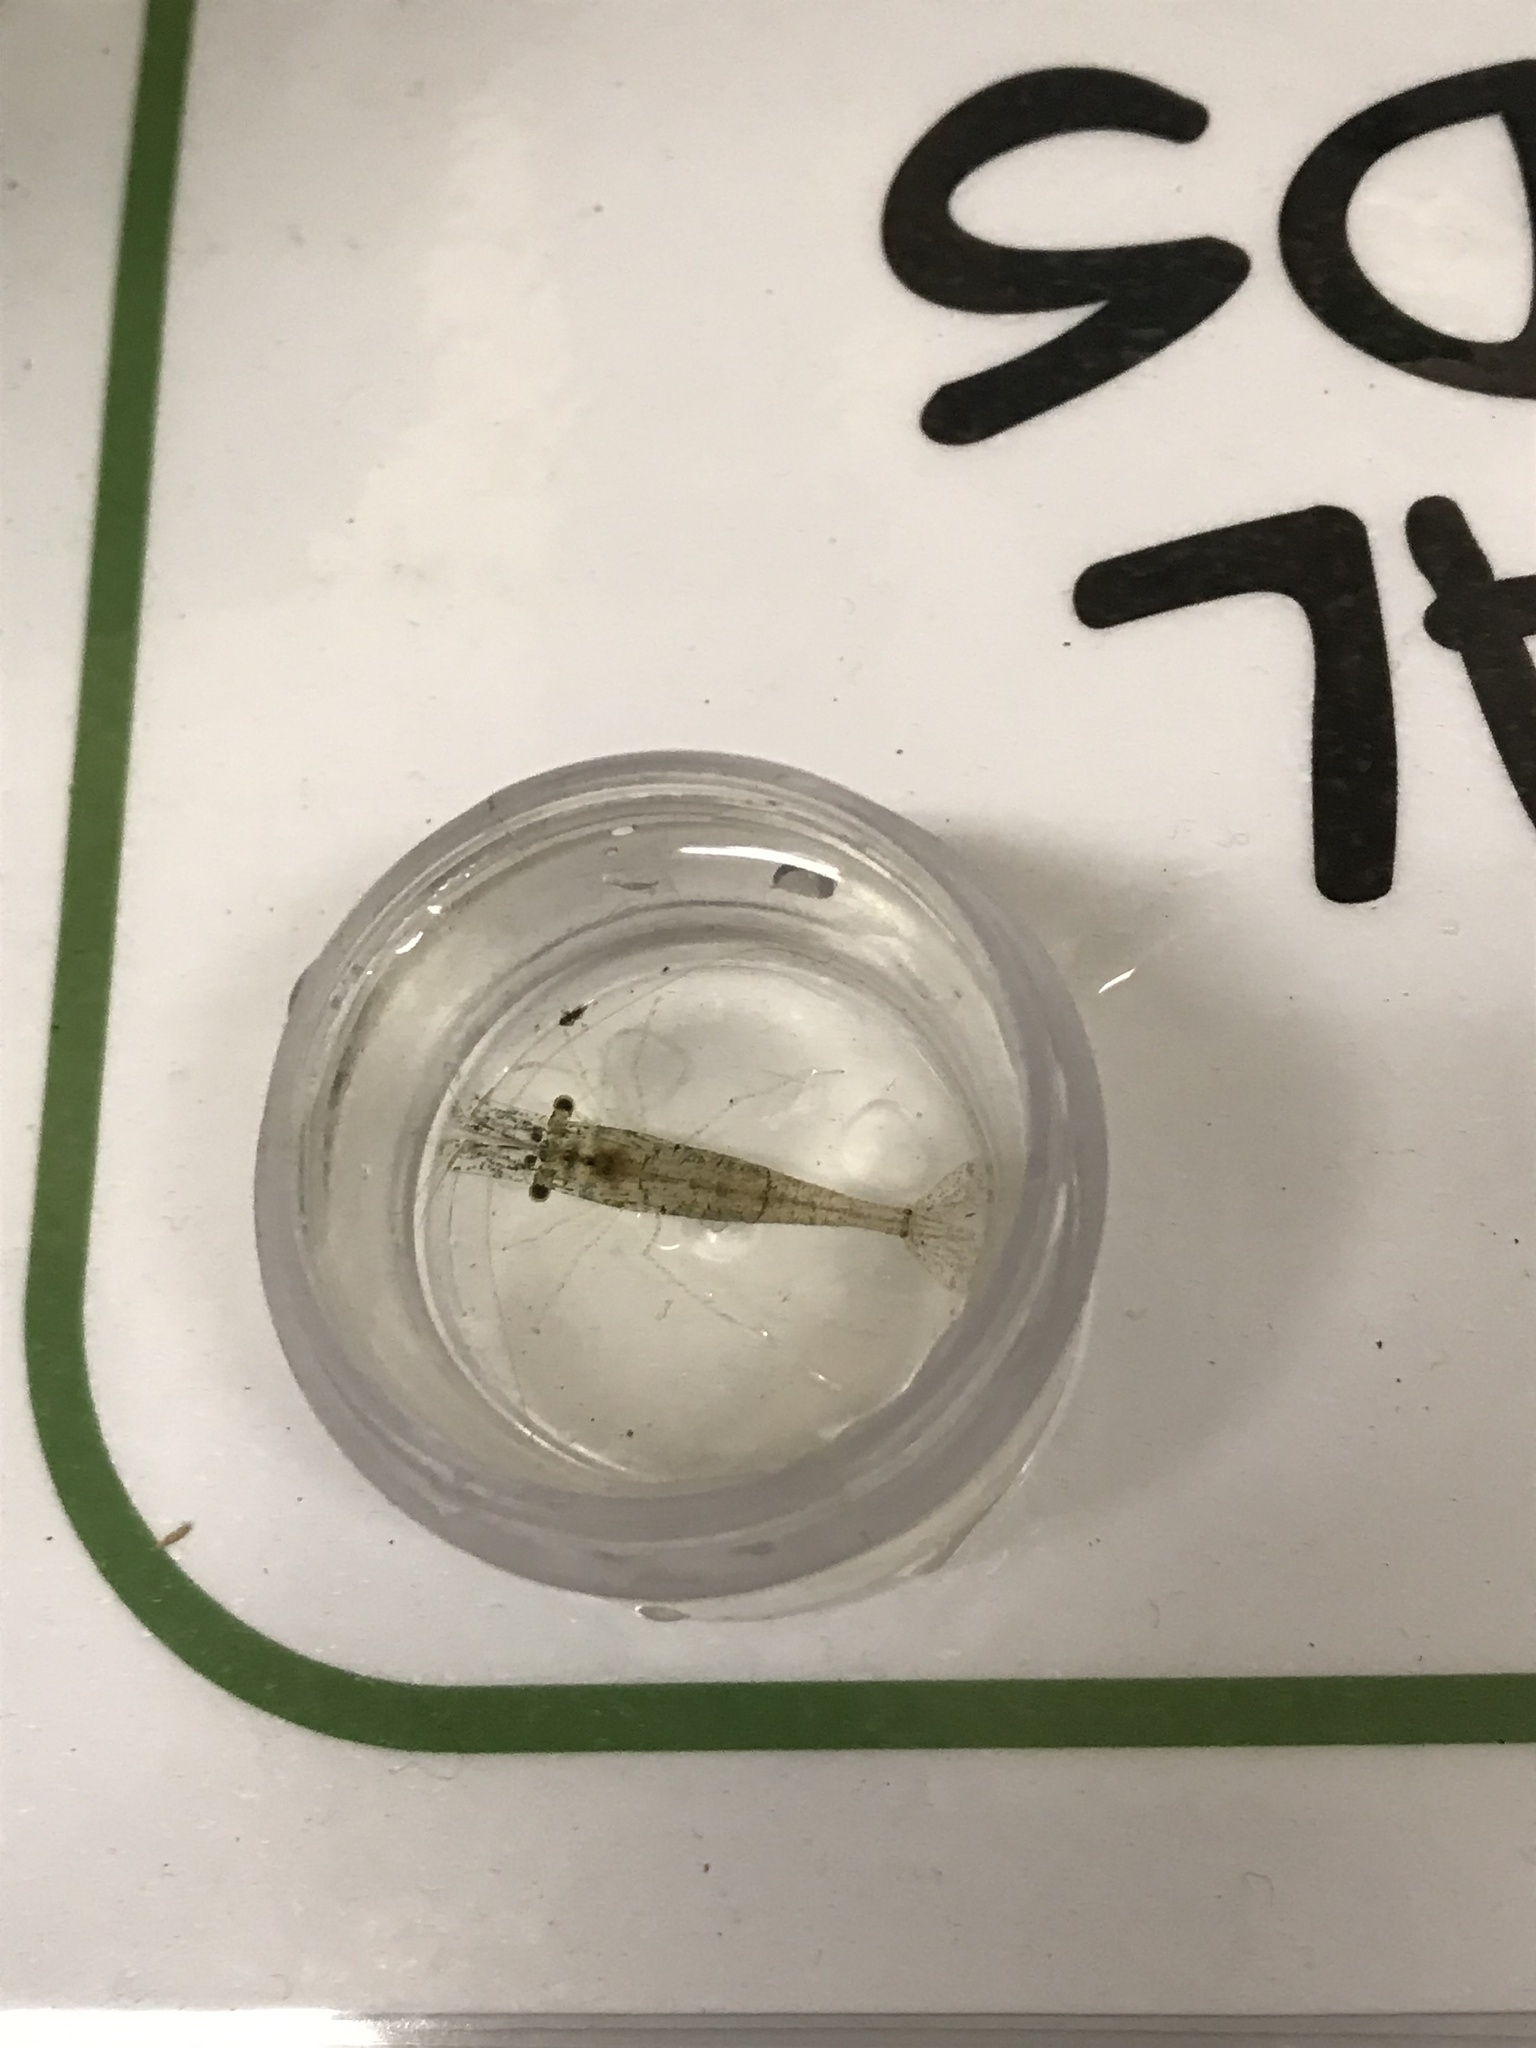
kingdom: Animalia
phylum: Arthropoda
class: Malacostraca
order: Decapoda
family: Palaemonidae
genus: Palaemon
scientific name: Palaemon kadiakensis
